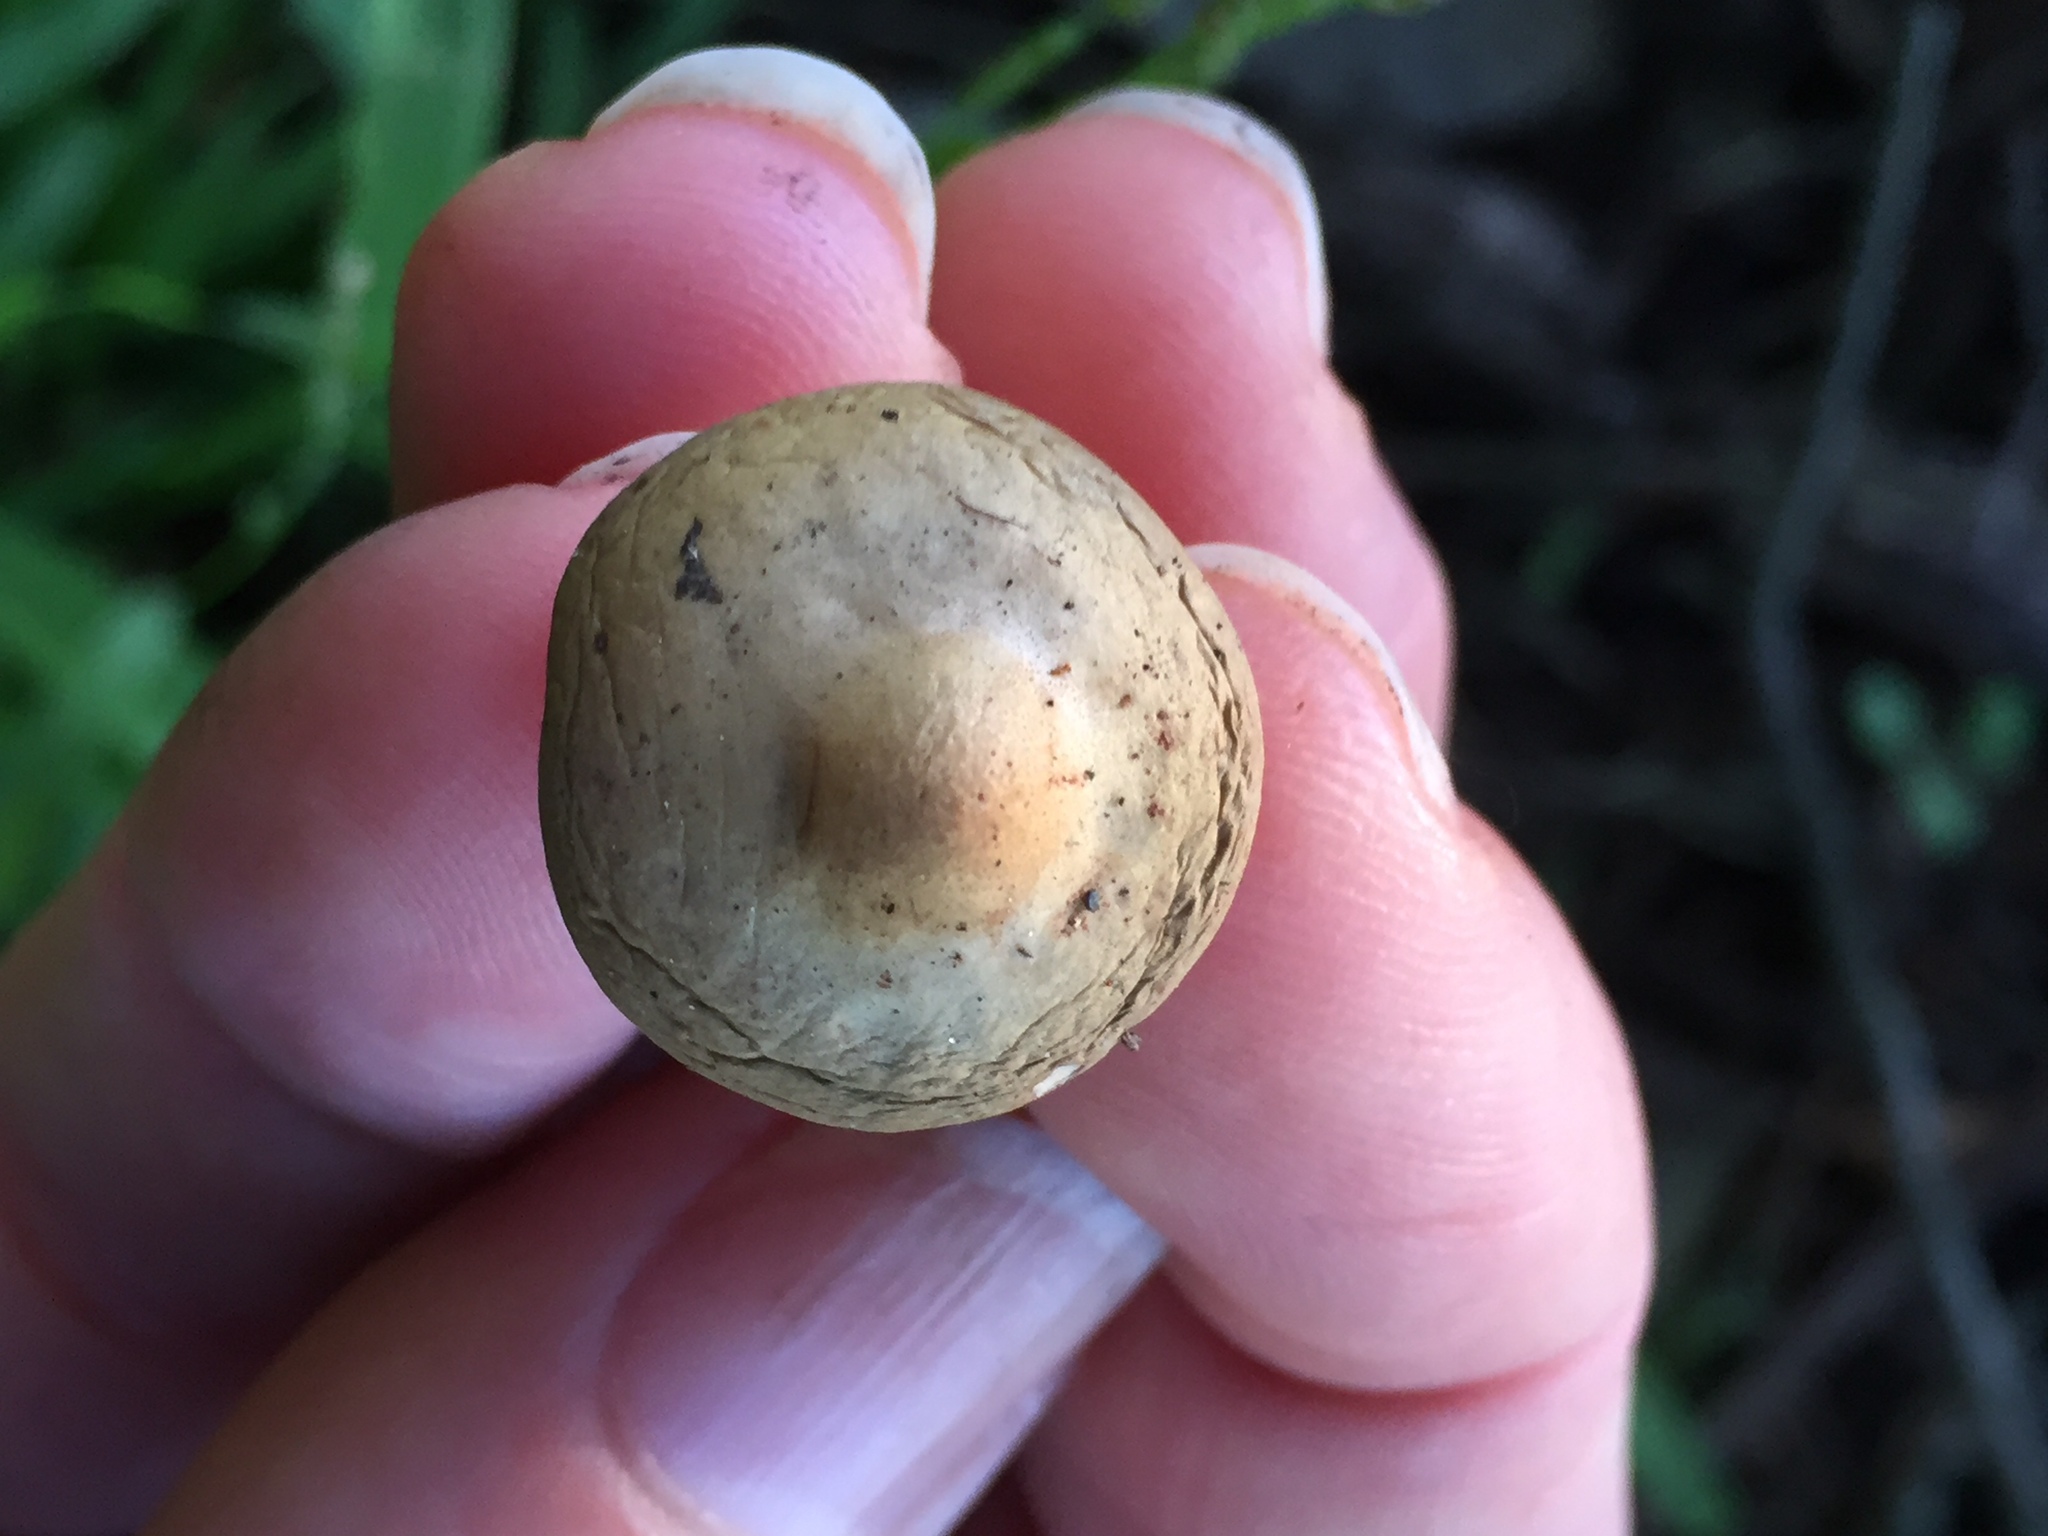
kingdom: Fungi
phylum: Basidiomycota
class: Agaricomycetes
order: Agaricales
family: Strophariaceae
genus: Agrocybe
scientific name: Agrocybe putaminum
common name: Mulch fieldcap
